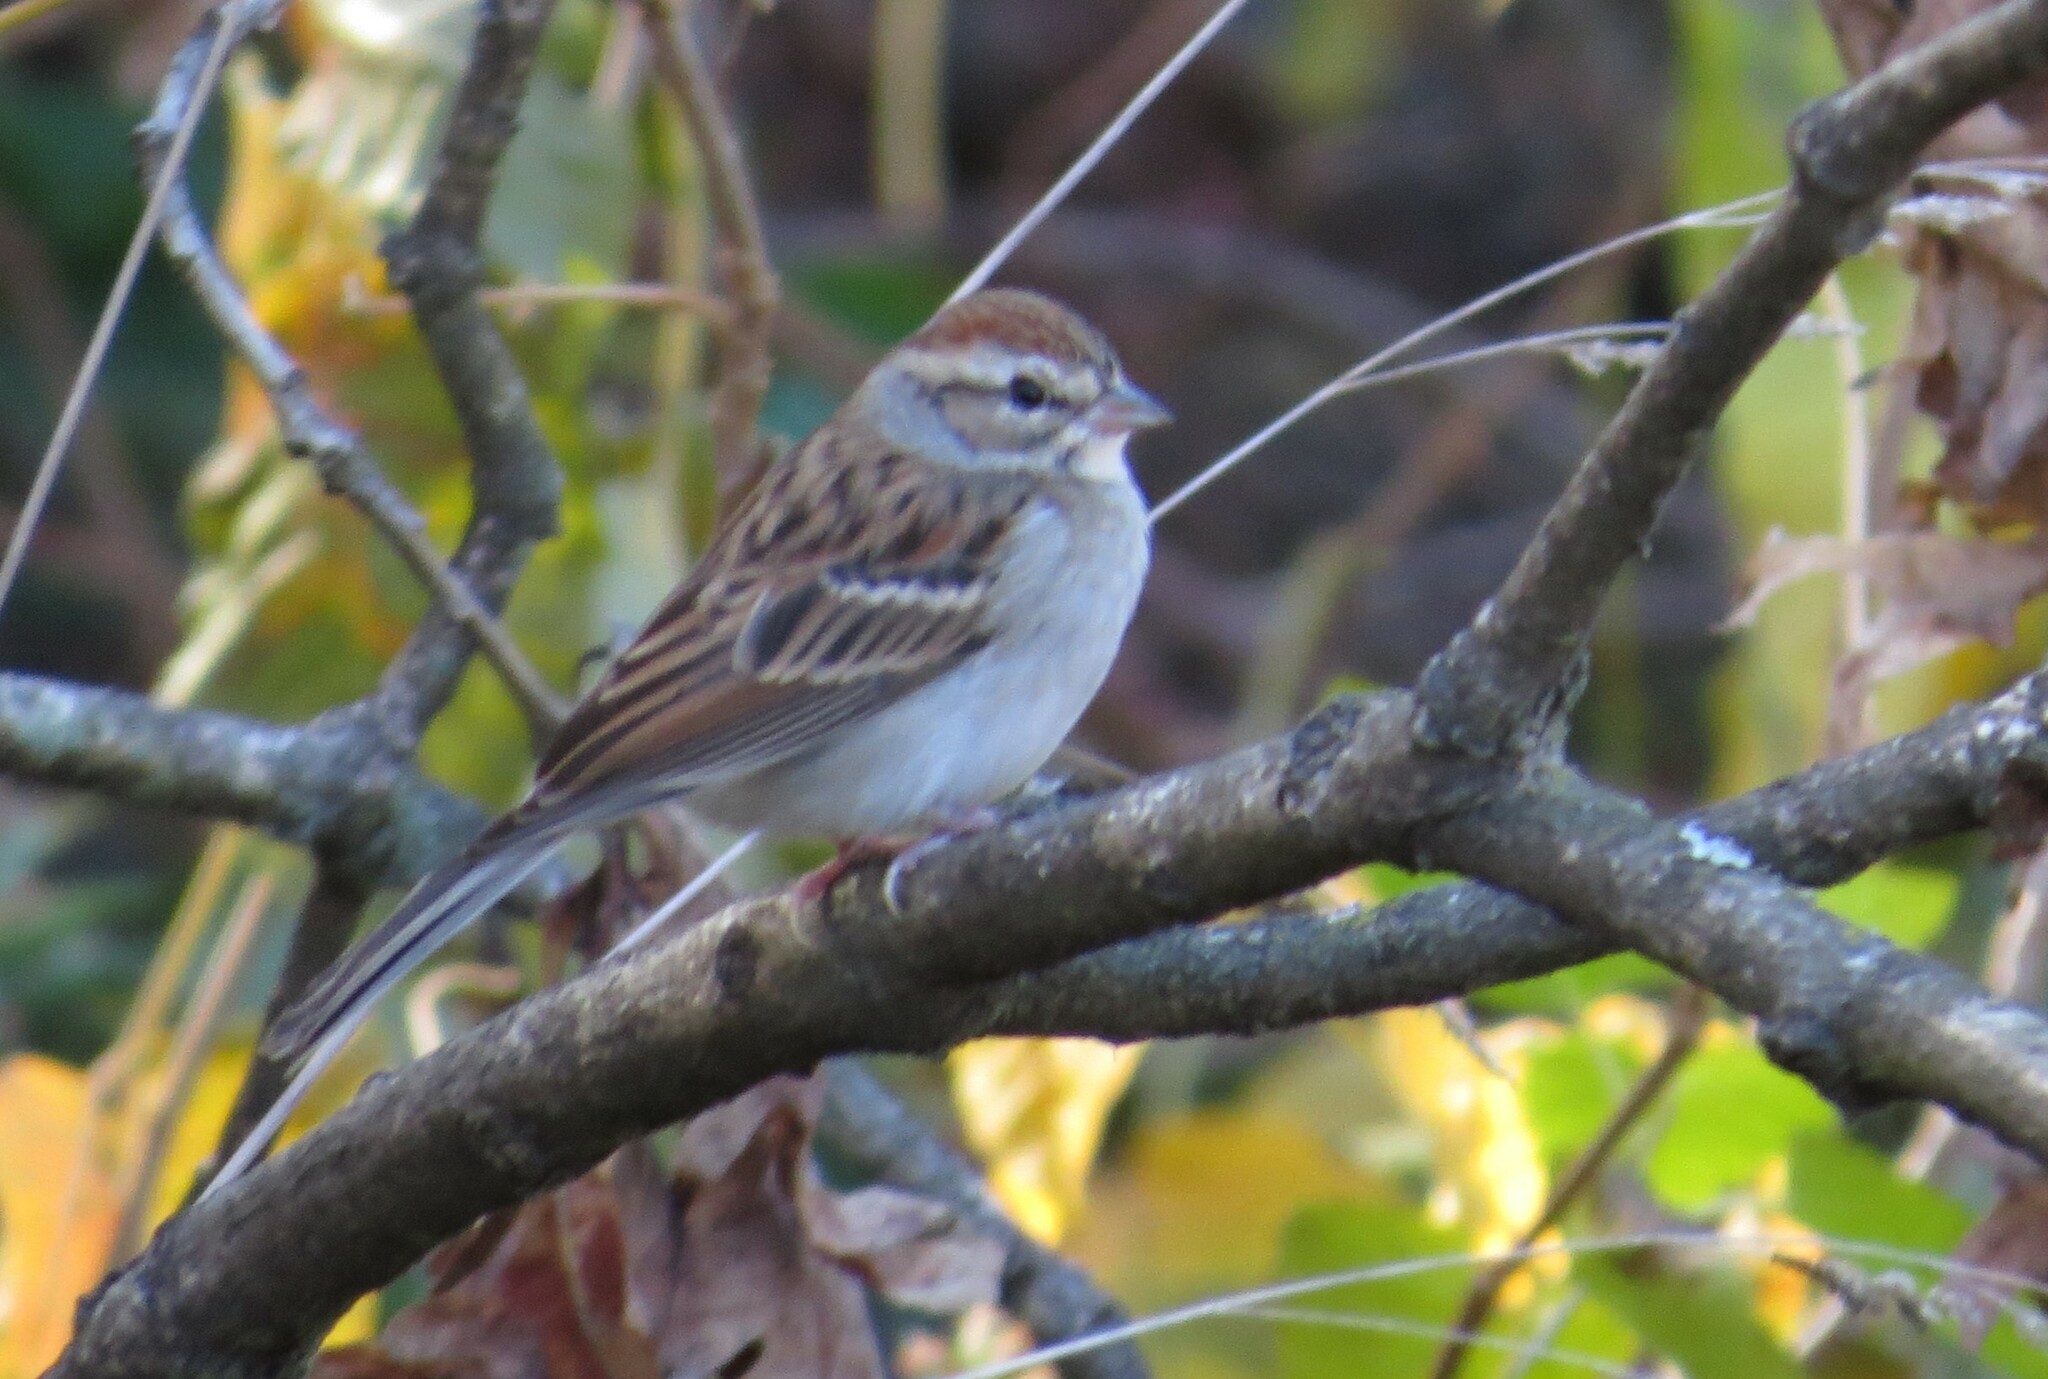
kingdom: Animalia
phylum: Chordata
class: Aves
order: Passeriformes
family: Passerellidae
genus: Spizella
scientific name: Spizella passerina
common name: Chipping sparrow
